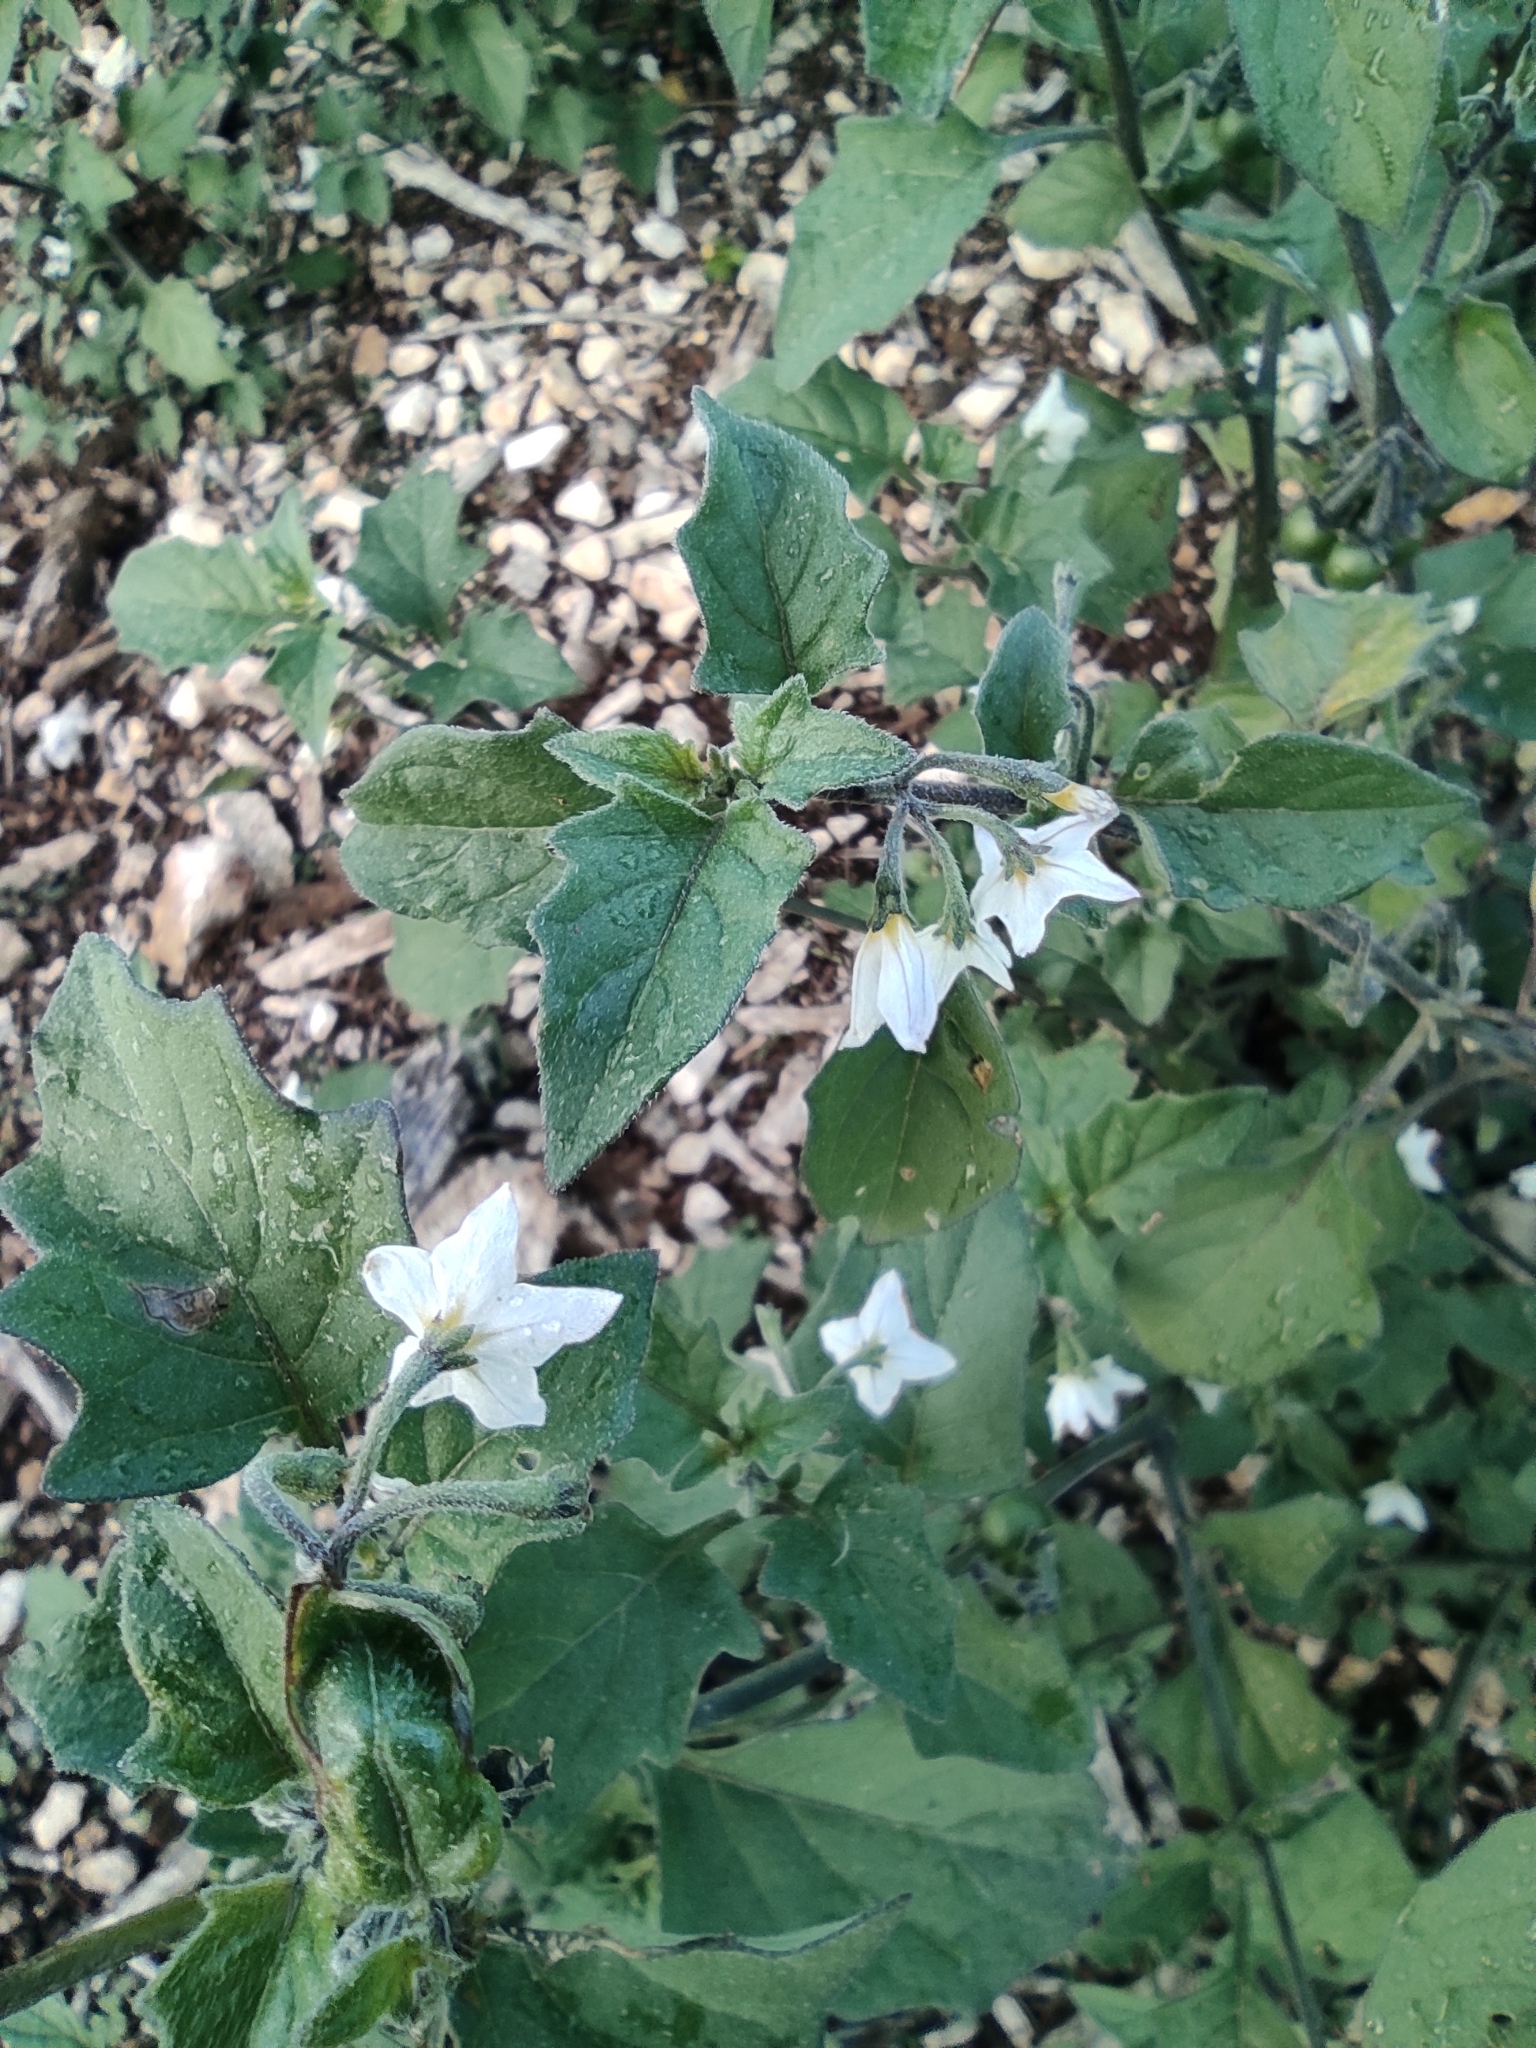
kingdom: Plantae
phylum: Tracheophyta
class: Magnoliopsida
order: Solanales
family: Solanaceae
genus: Solanum
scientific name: Solanum nigrum
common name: Black nightshade
